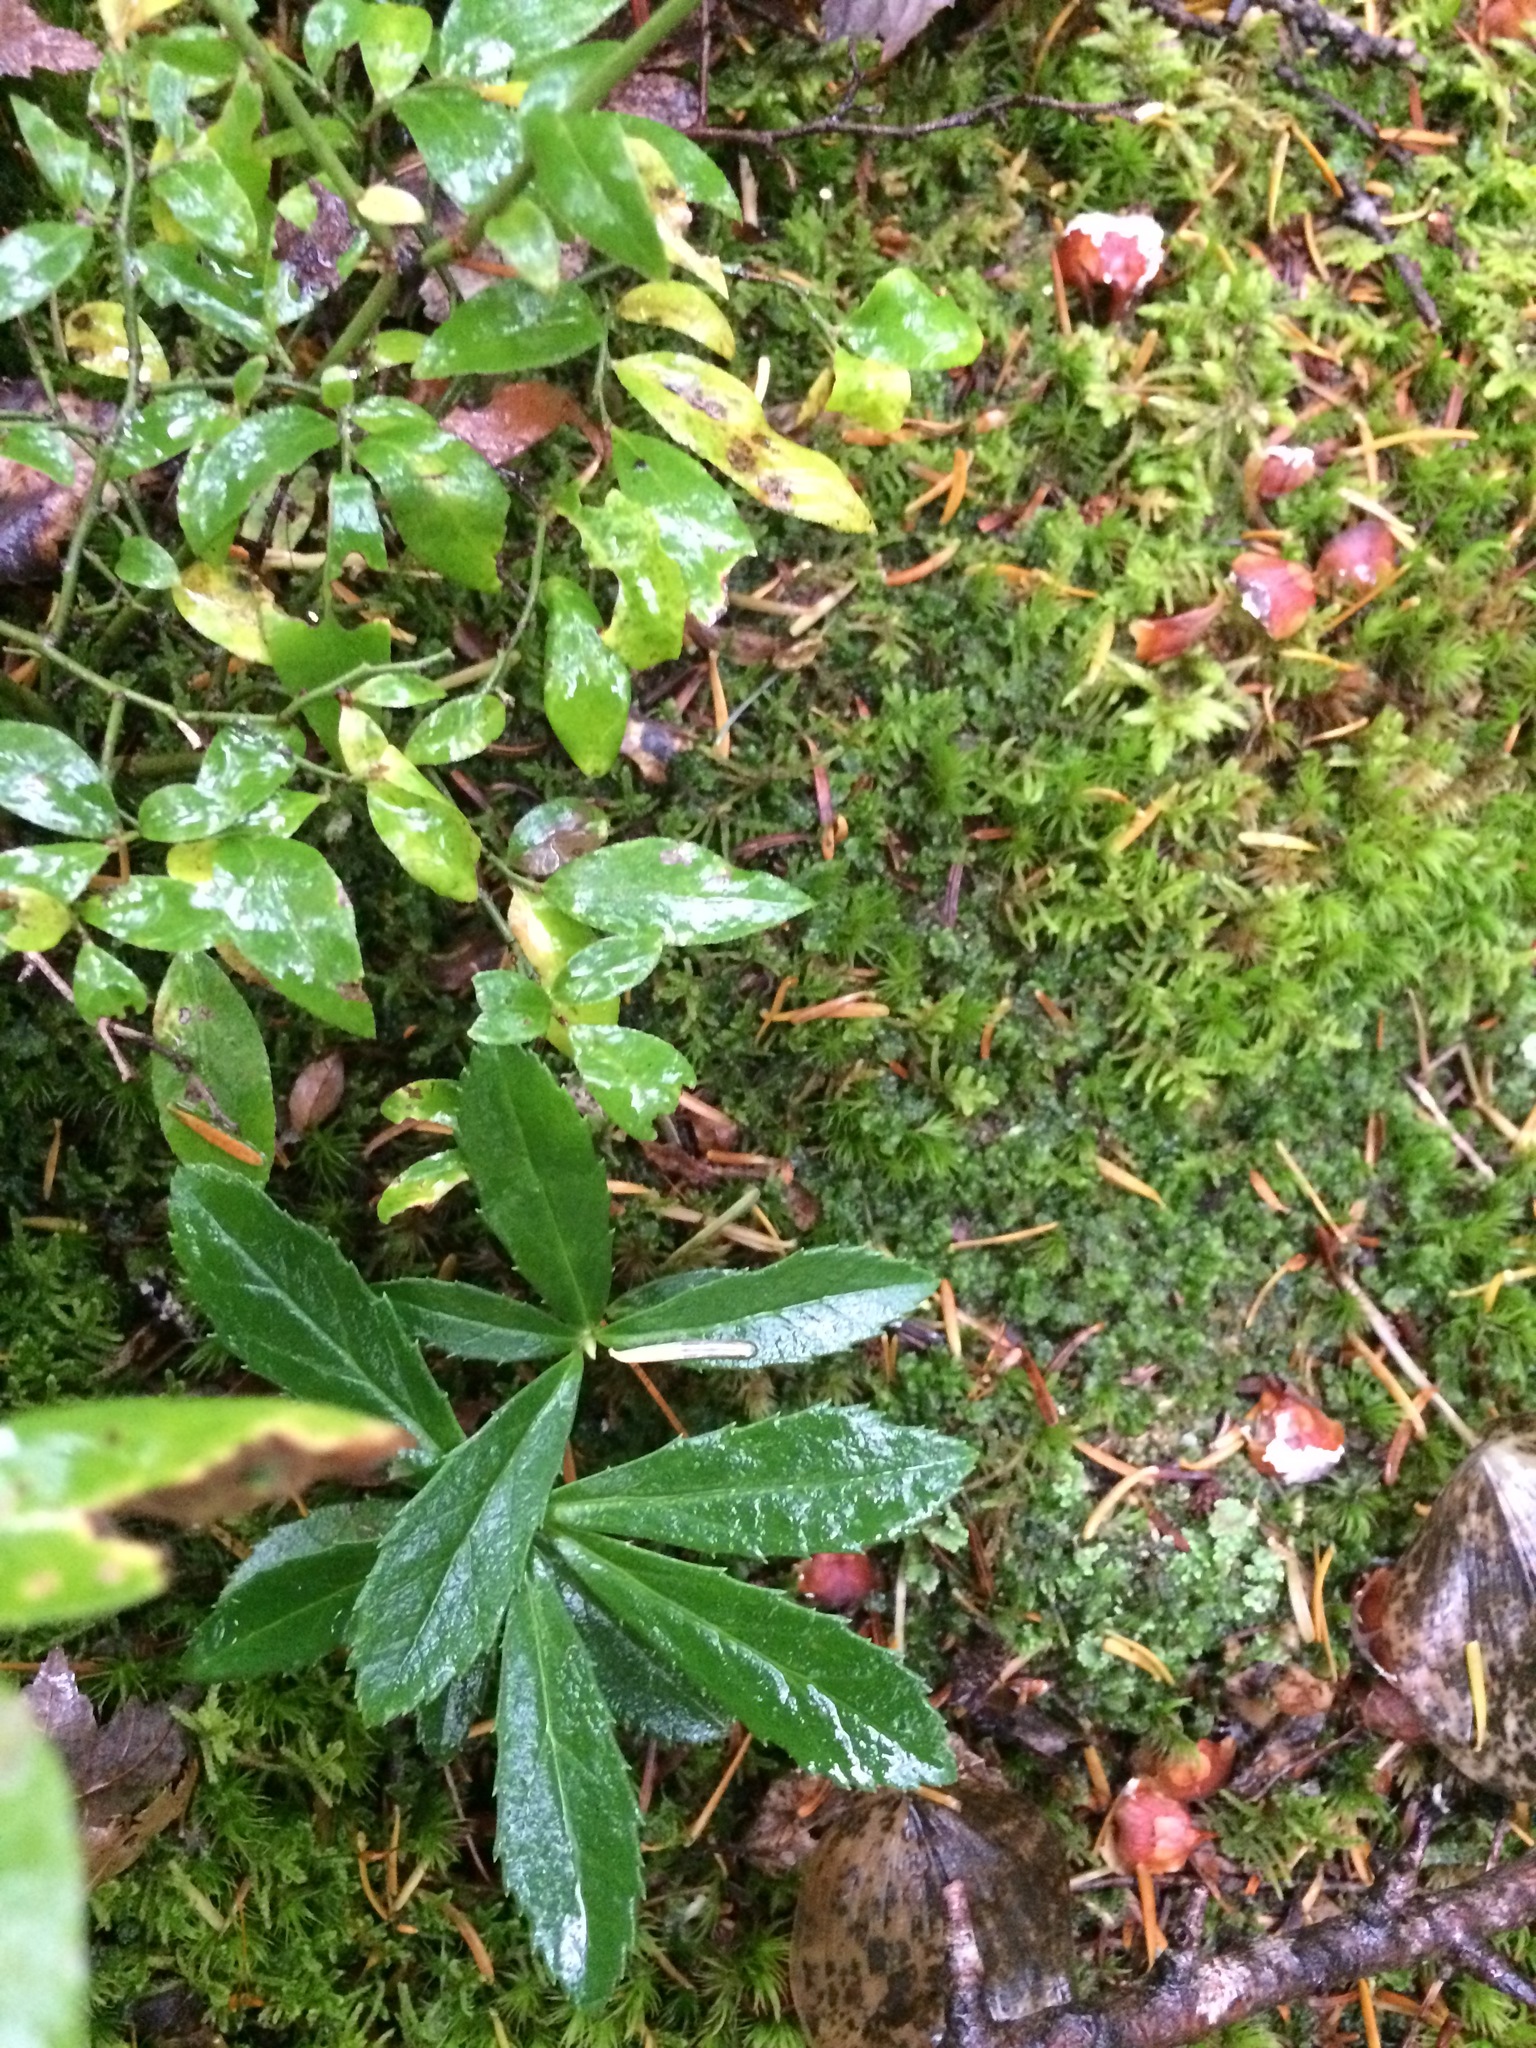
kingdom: Plantae
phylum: Tracheophyta
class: Magnoliopsida
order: Ericales
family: Ericaceae
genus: Chimaphila
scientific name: Chimaphila umbellata
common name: Pipsissewa
